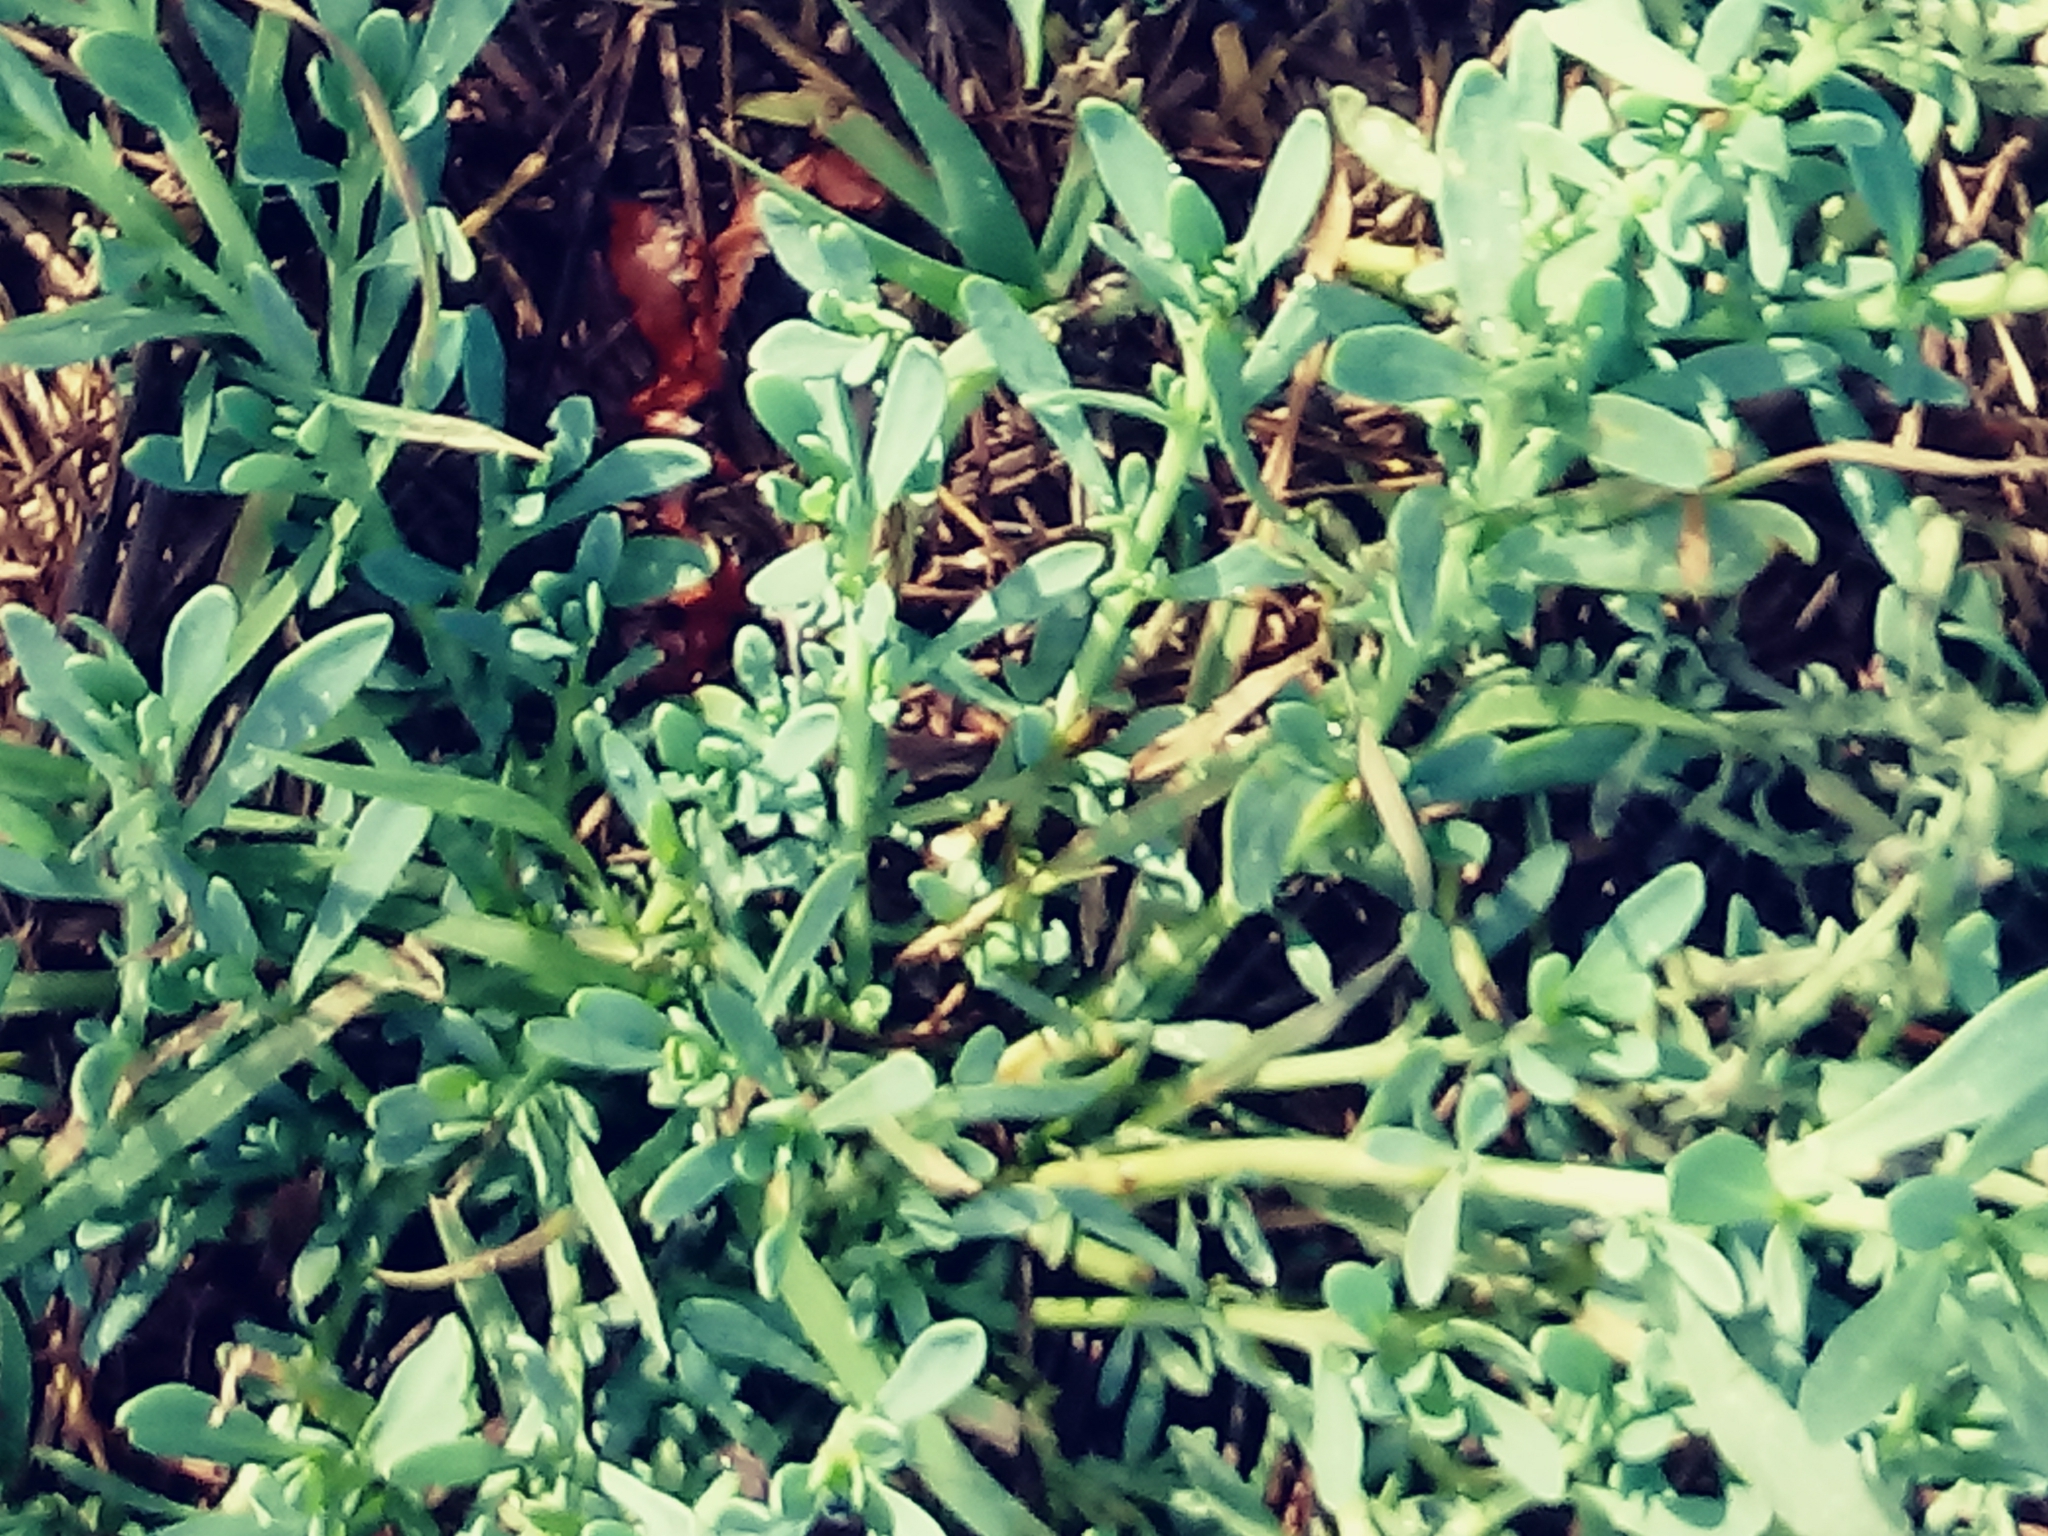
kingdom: Plantae
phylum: Tracheophyta
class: Magnoliopsida
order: Boraginales
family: Heliotropiaceae
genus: Heliotropium
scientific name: Heliotropium curassavicum
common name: Seaside heliotrope
